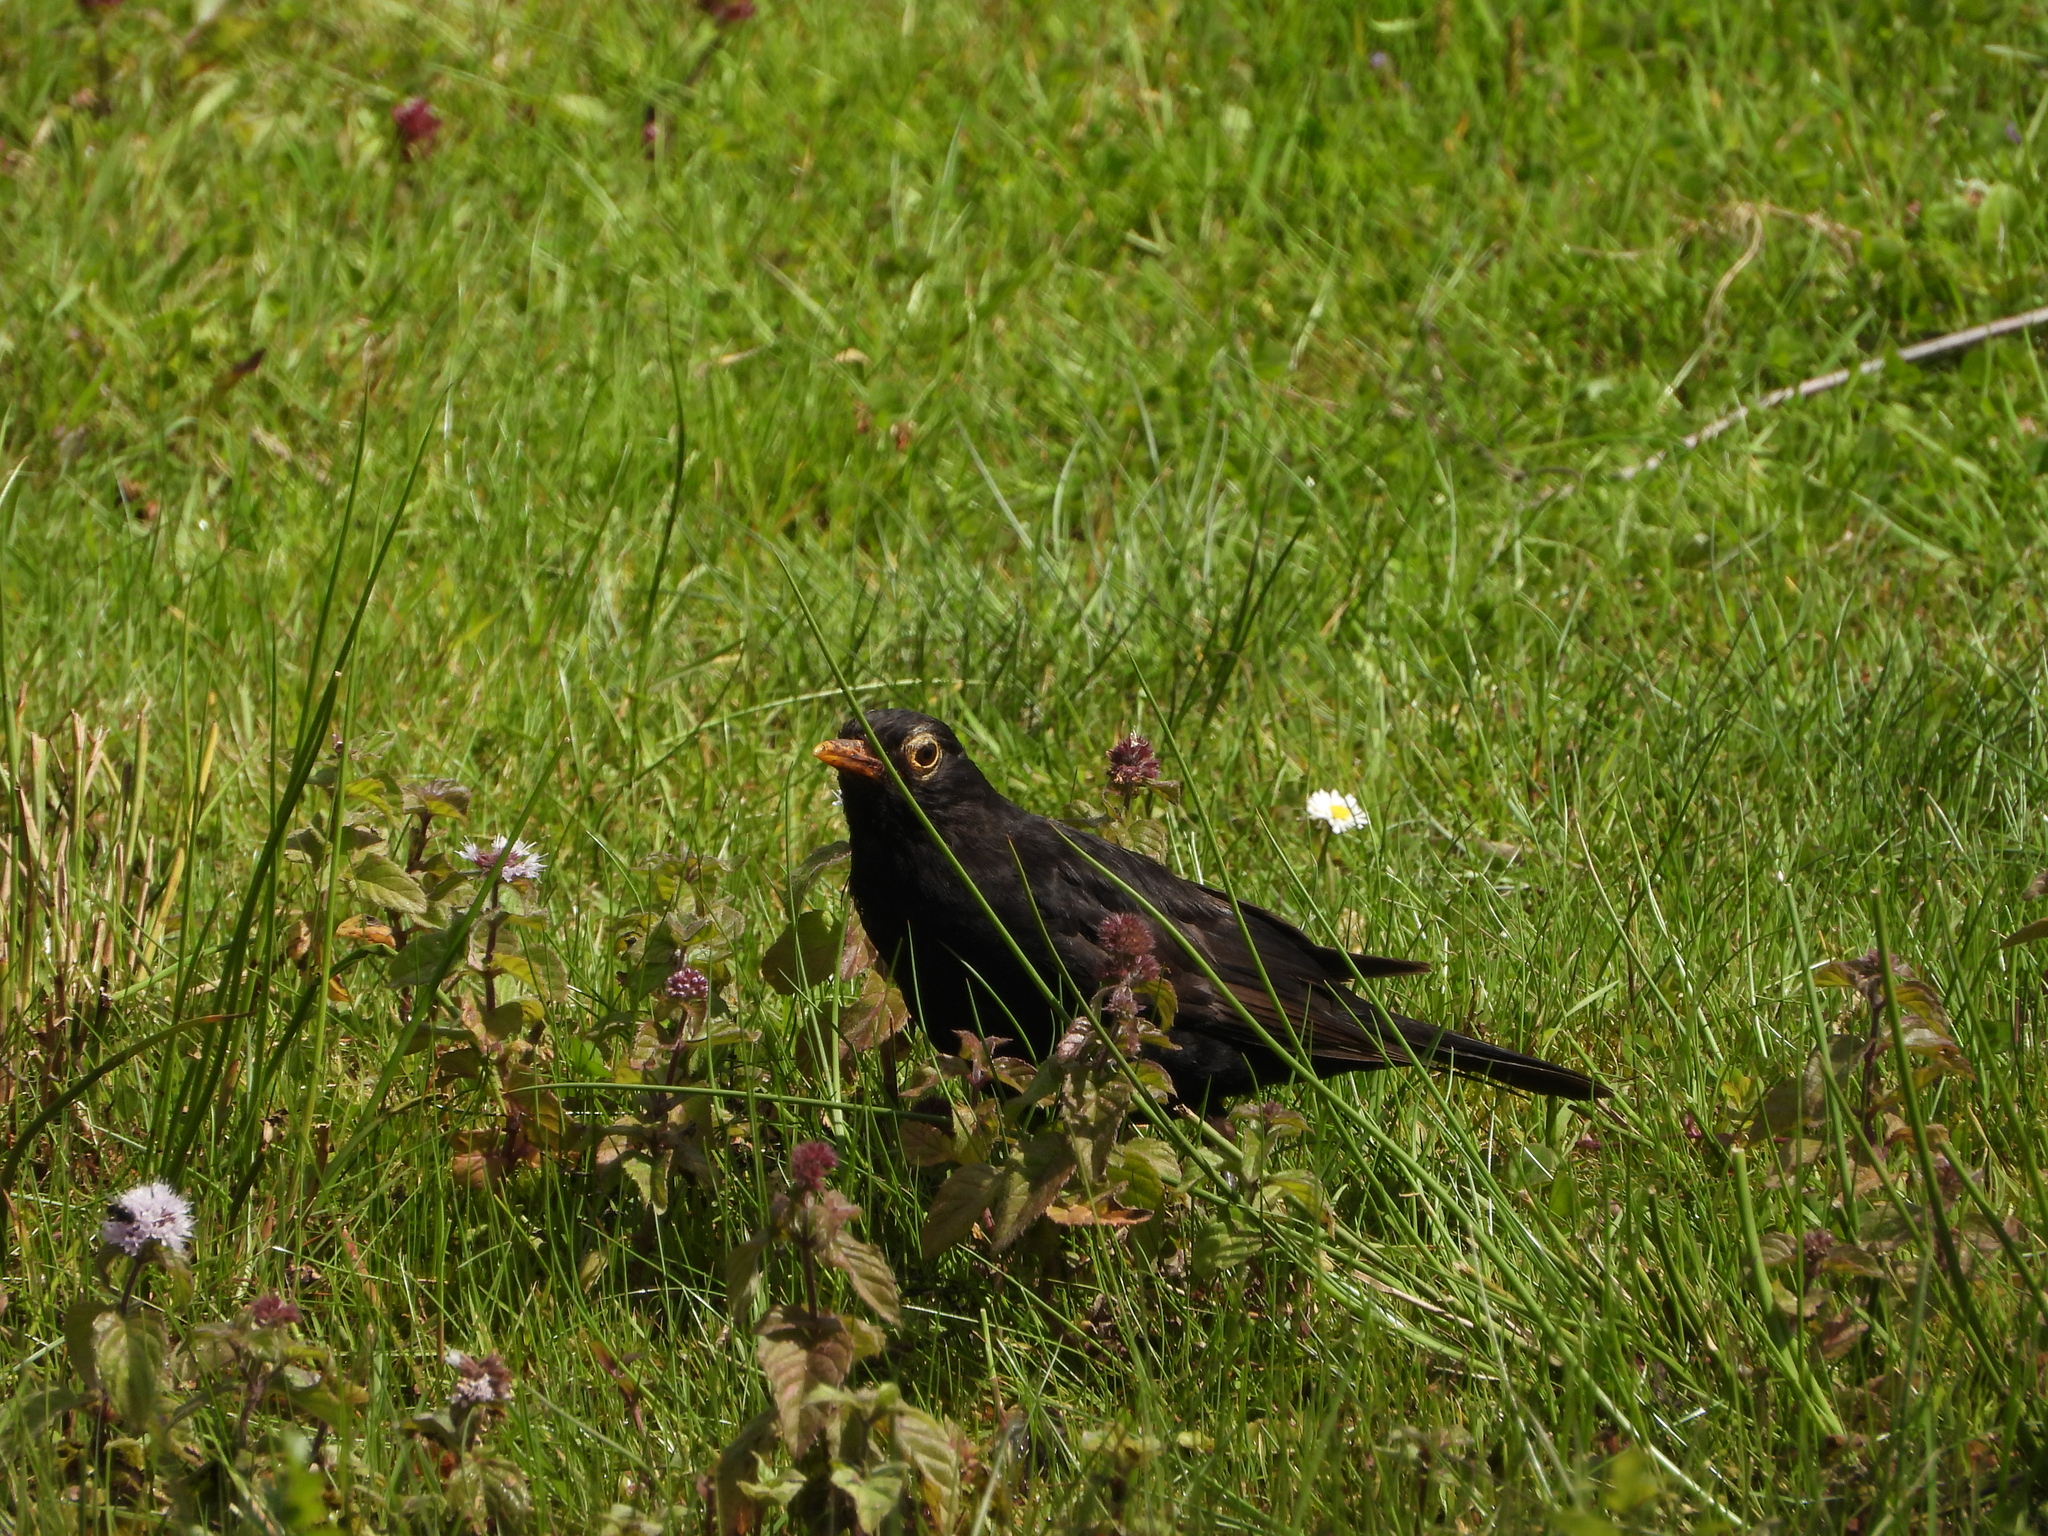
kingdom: Animalia
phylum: Chordata
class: Aves
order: Passeriformes
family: Turdidae
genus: Turdus
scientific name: Turdus merula
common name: Common blackbird
